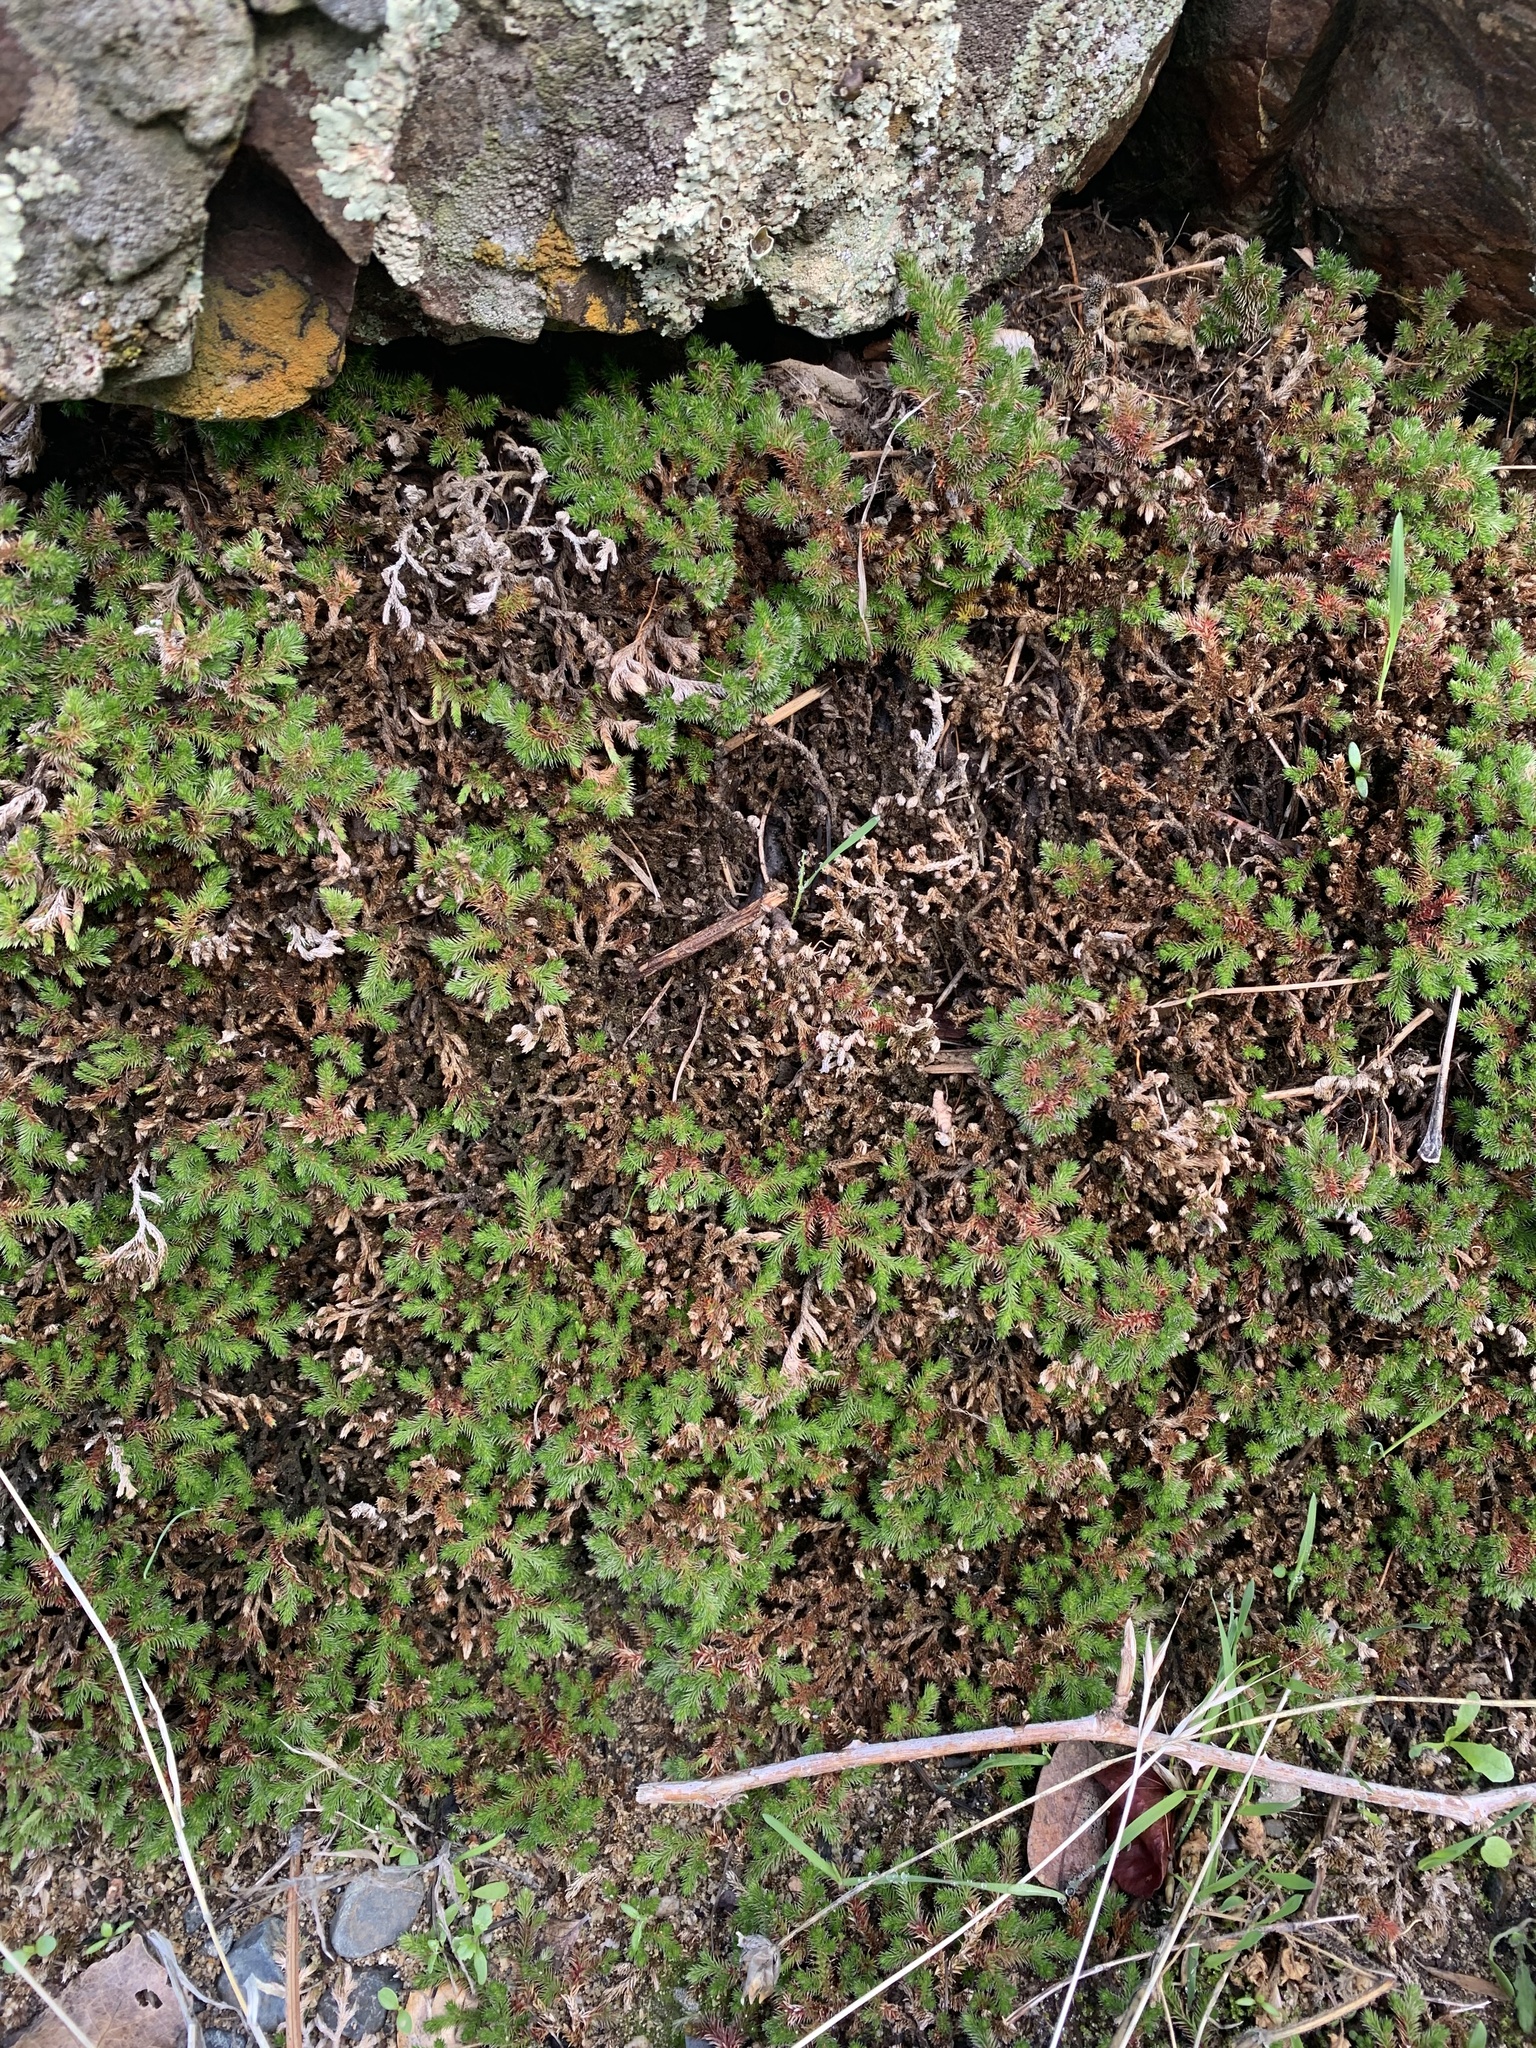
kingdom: Plantae
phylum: Tracheophyta
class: Lycopodiopsida
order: Selaginellales
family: Selaginellaceae
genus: Selaginella
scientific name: Selaginella hansenii
